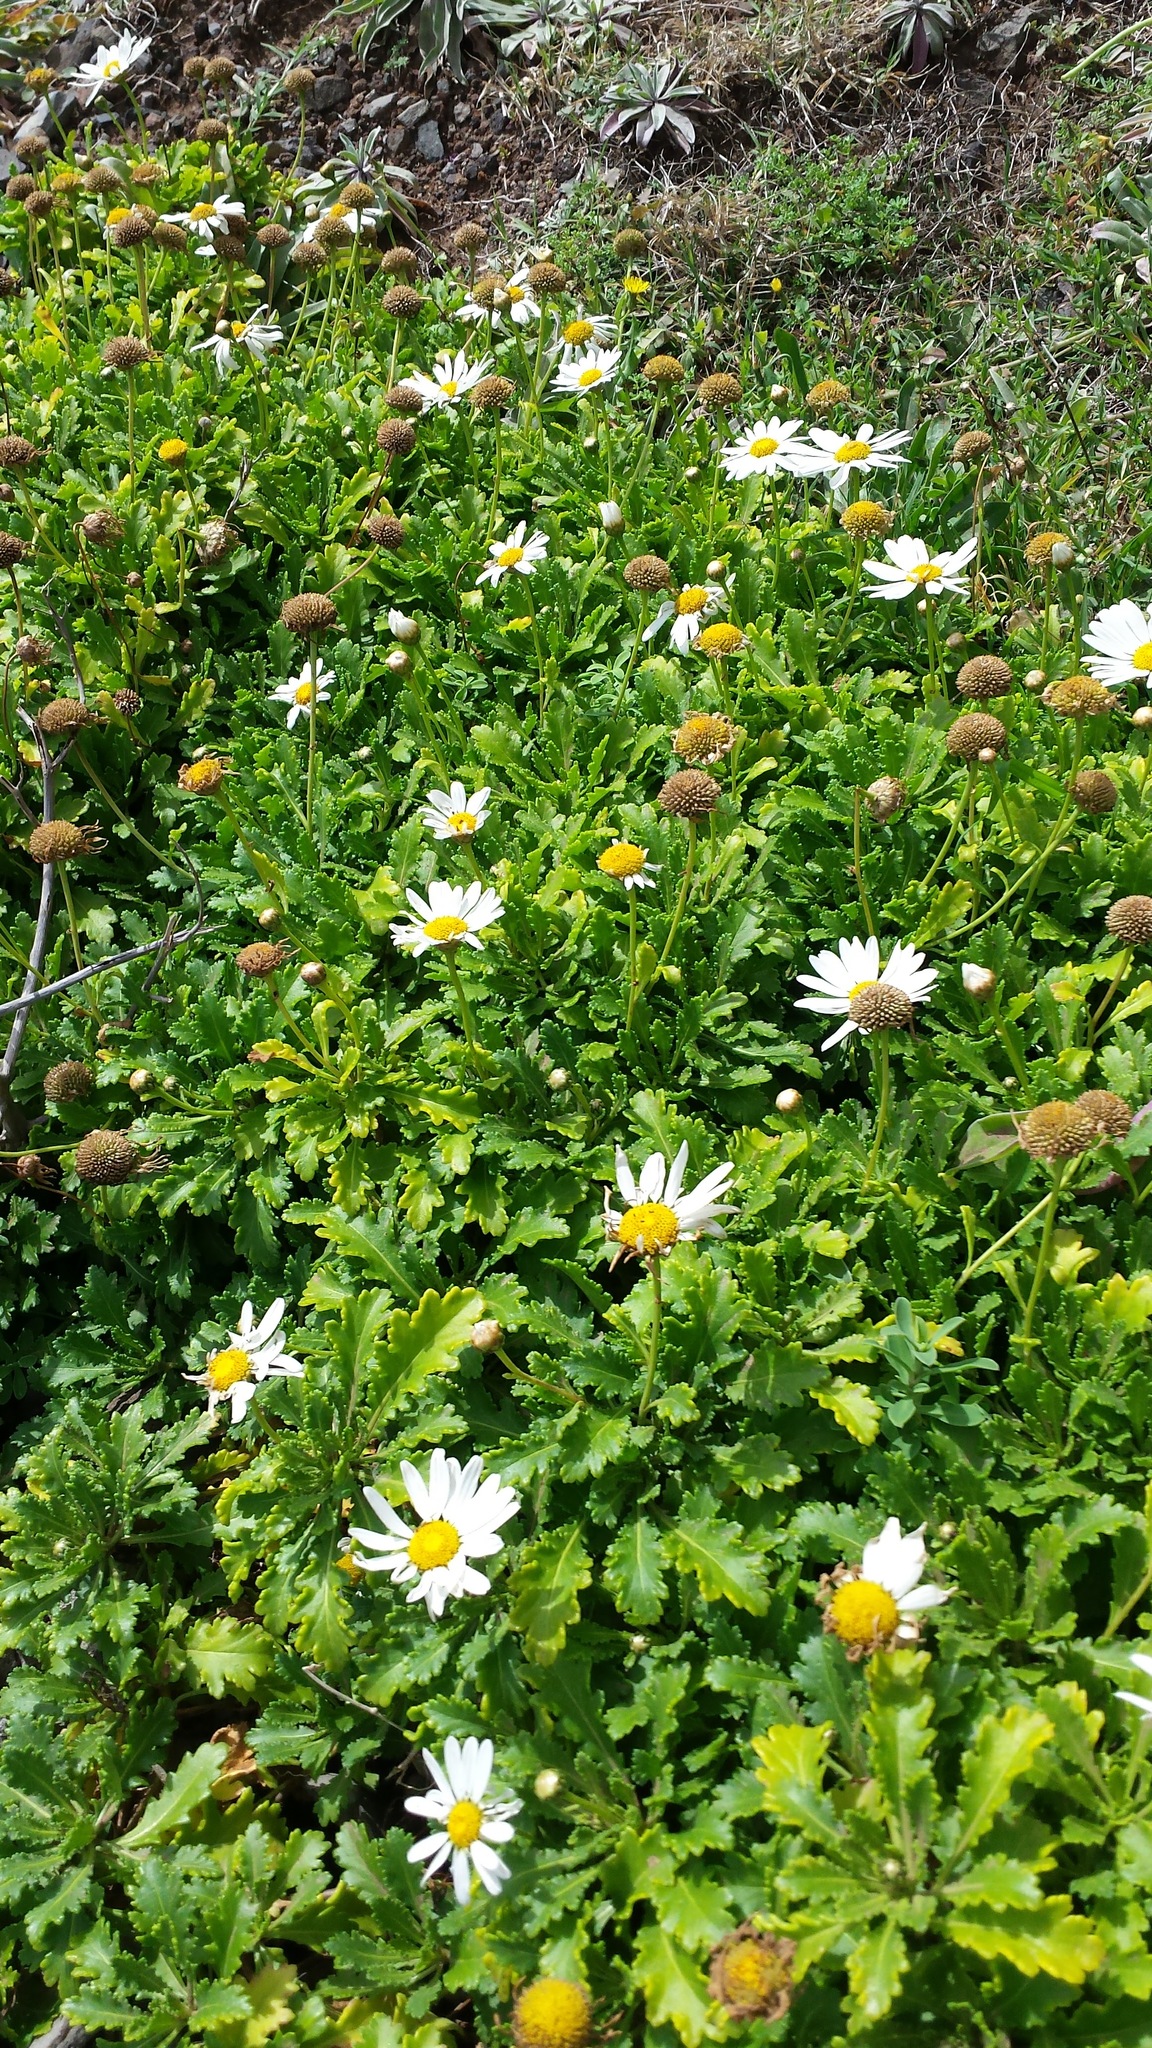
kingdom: Plantae
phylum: Tracheophyta
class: Magnoliopsida
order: Asterales
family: Asteraceae
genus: Argyranthemum
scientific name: Argyranthemum pinnatifidum
